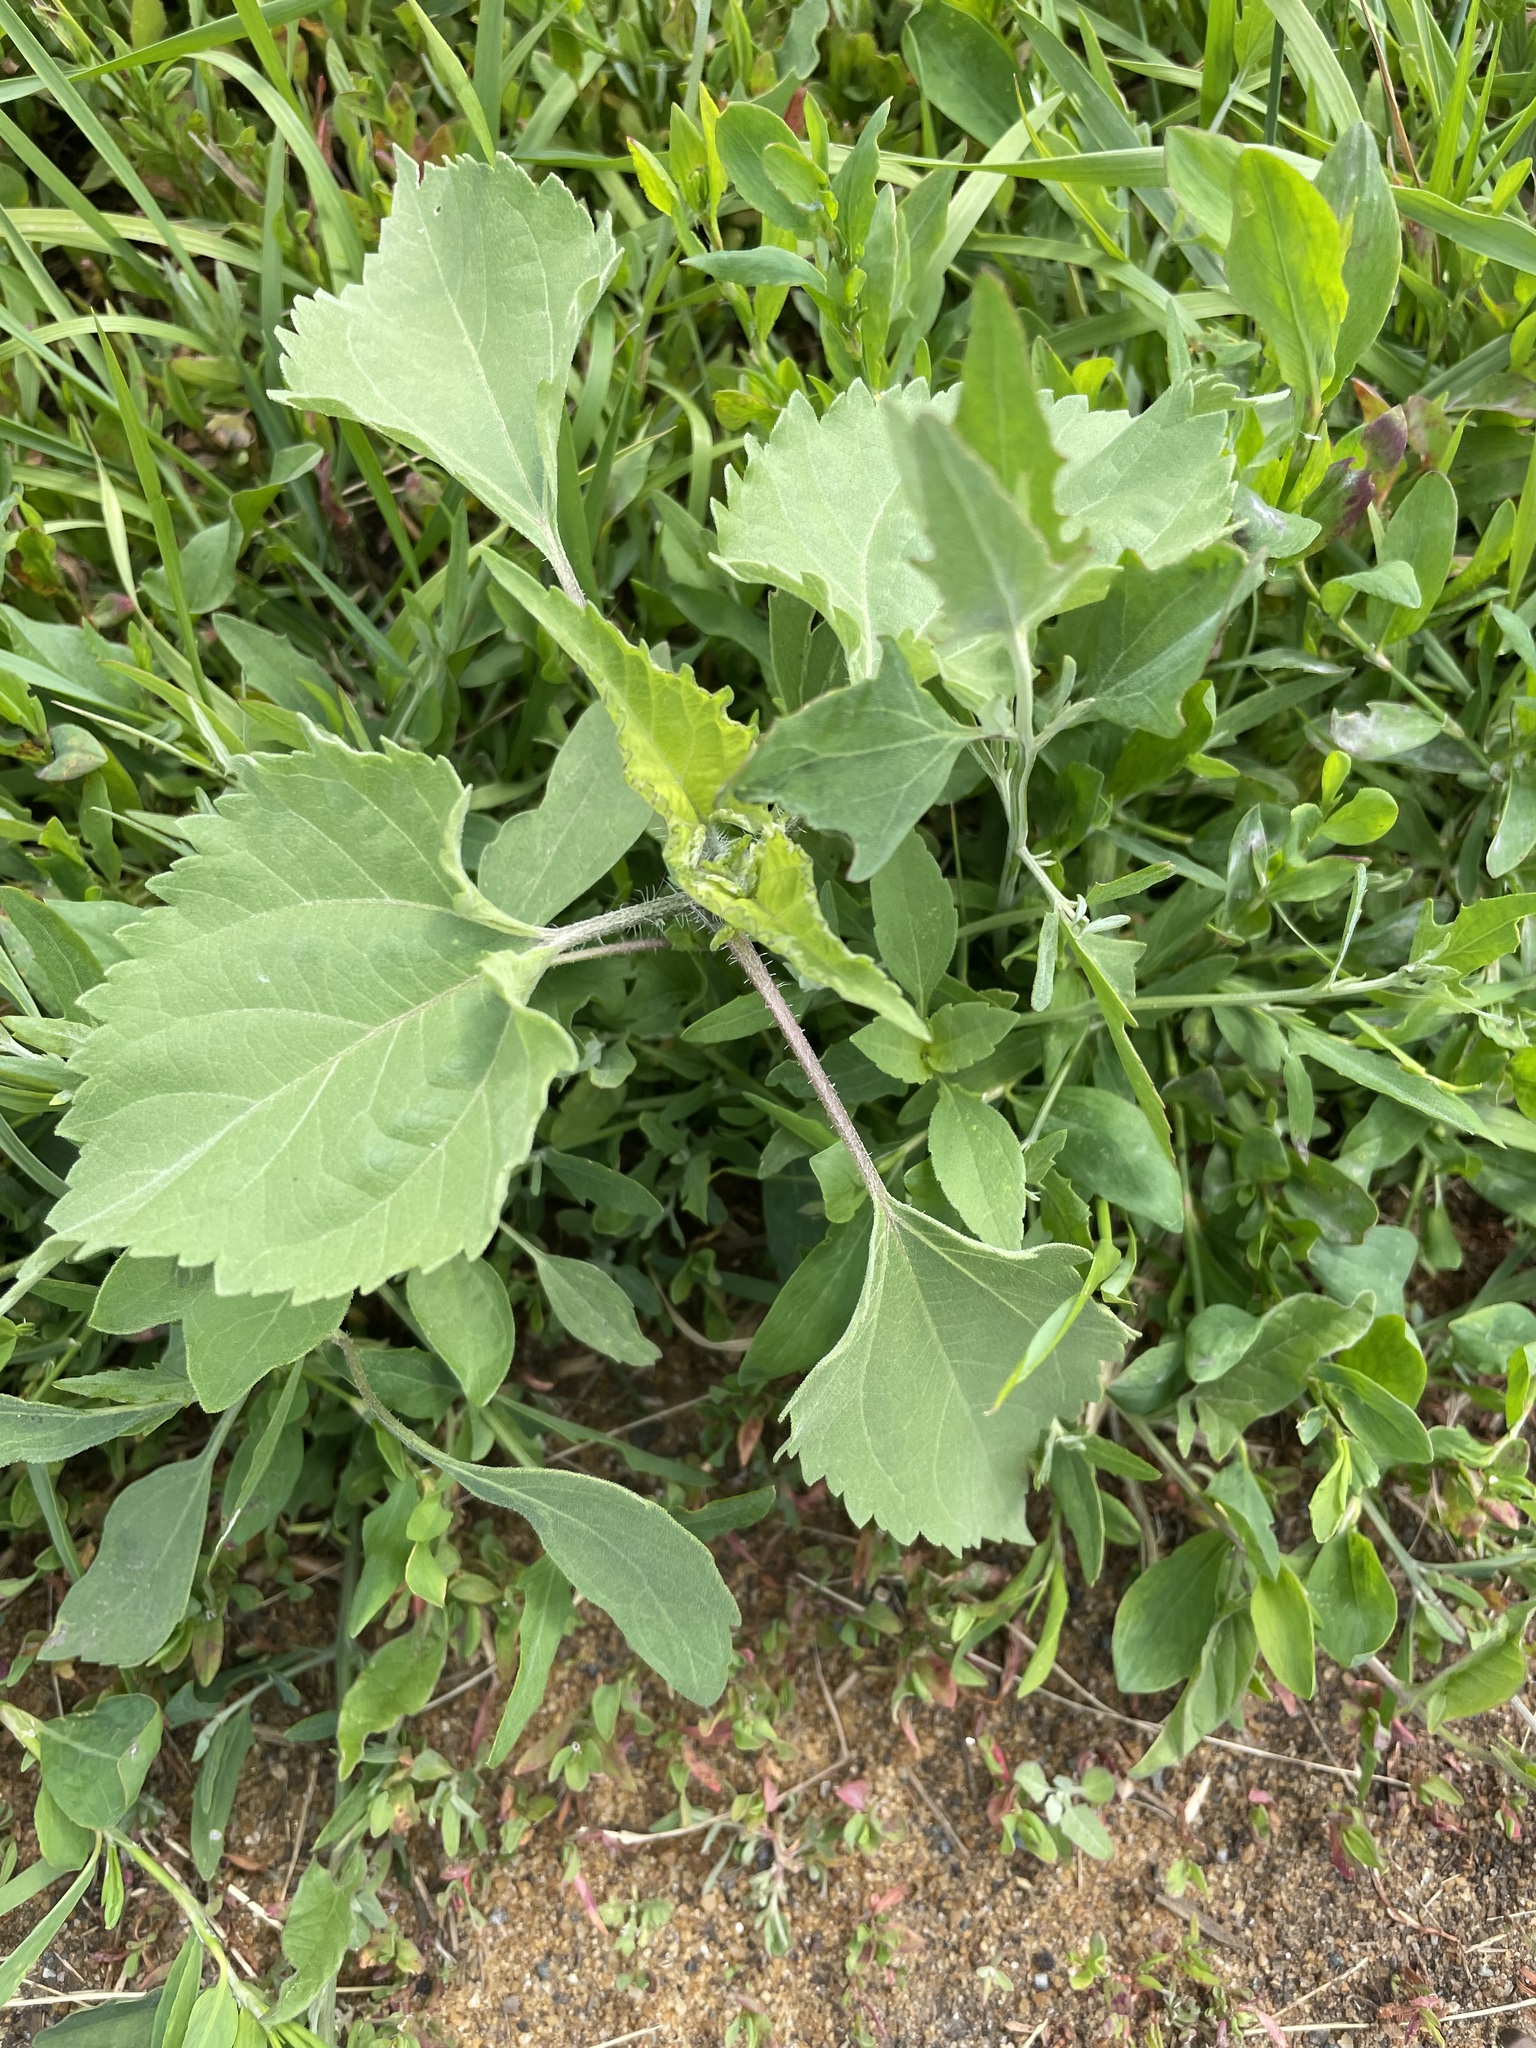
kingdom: Plantae
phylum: Tracheophyta
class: Magnoliopsida
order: Asterales
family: Asteraceae
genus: Cyclachaena
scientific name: Cyclachaena xanthiifolia
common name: Giant sumpweed
